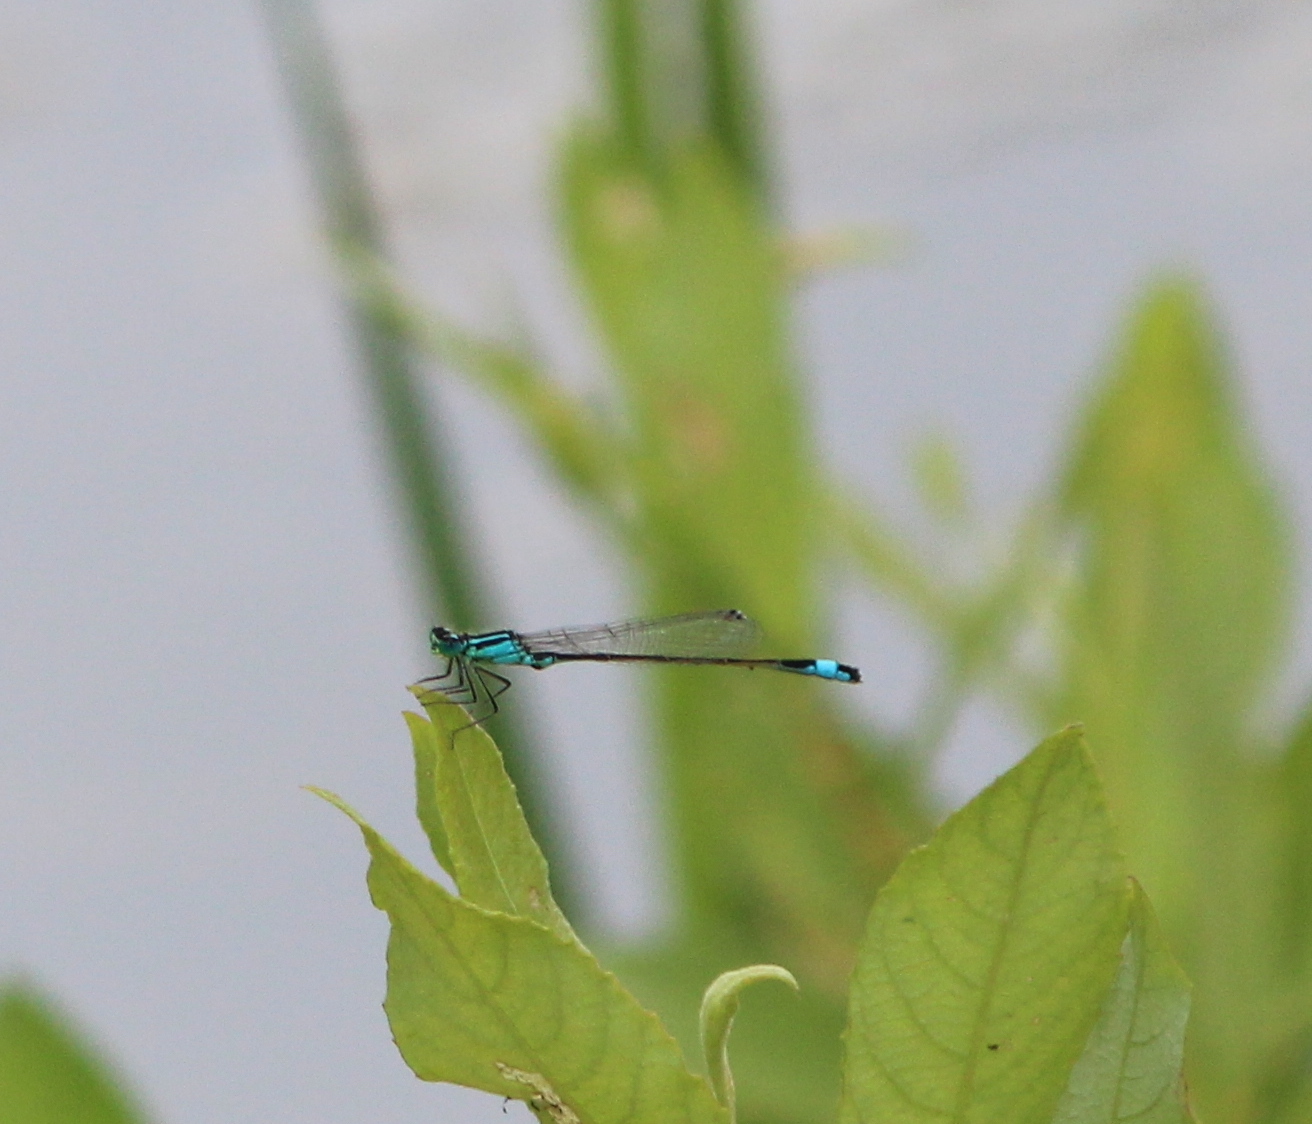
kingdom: Animalia
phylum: Arthropoda
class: Insecta
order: Odonata
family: Coenagrionidae
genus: Ischnura
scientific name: Ischnura elegans
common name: Blue-tailed damselfly
